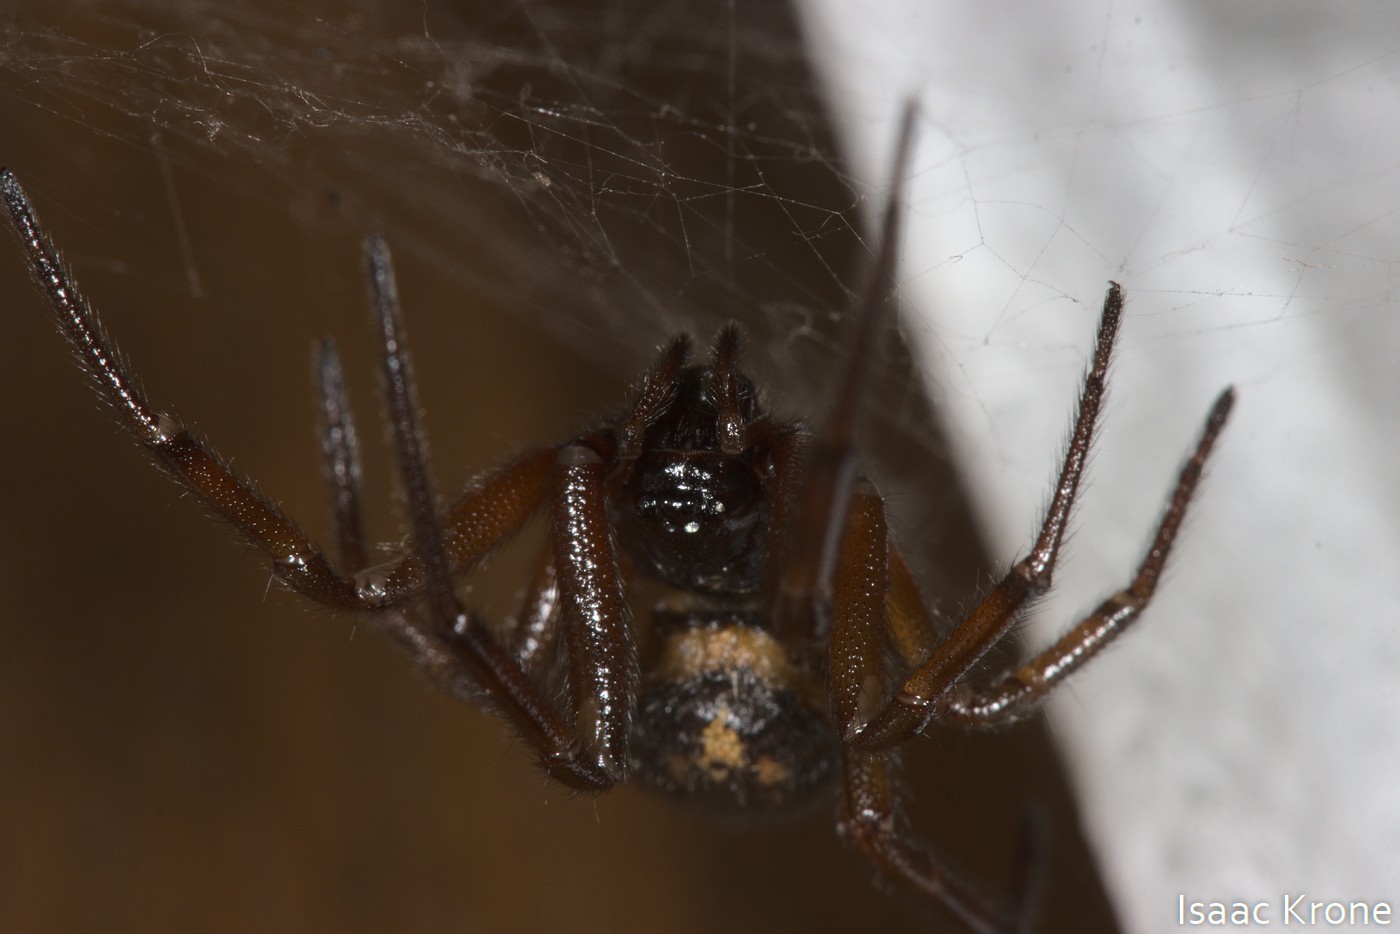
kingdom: Animalia
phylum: Arthropoda
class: Arachnida
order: Araneae
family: Theridiidae
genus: Steatoda
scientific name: Steatoda nobilis
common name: Cobweb weaver
